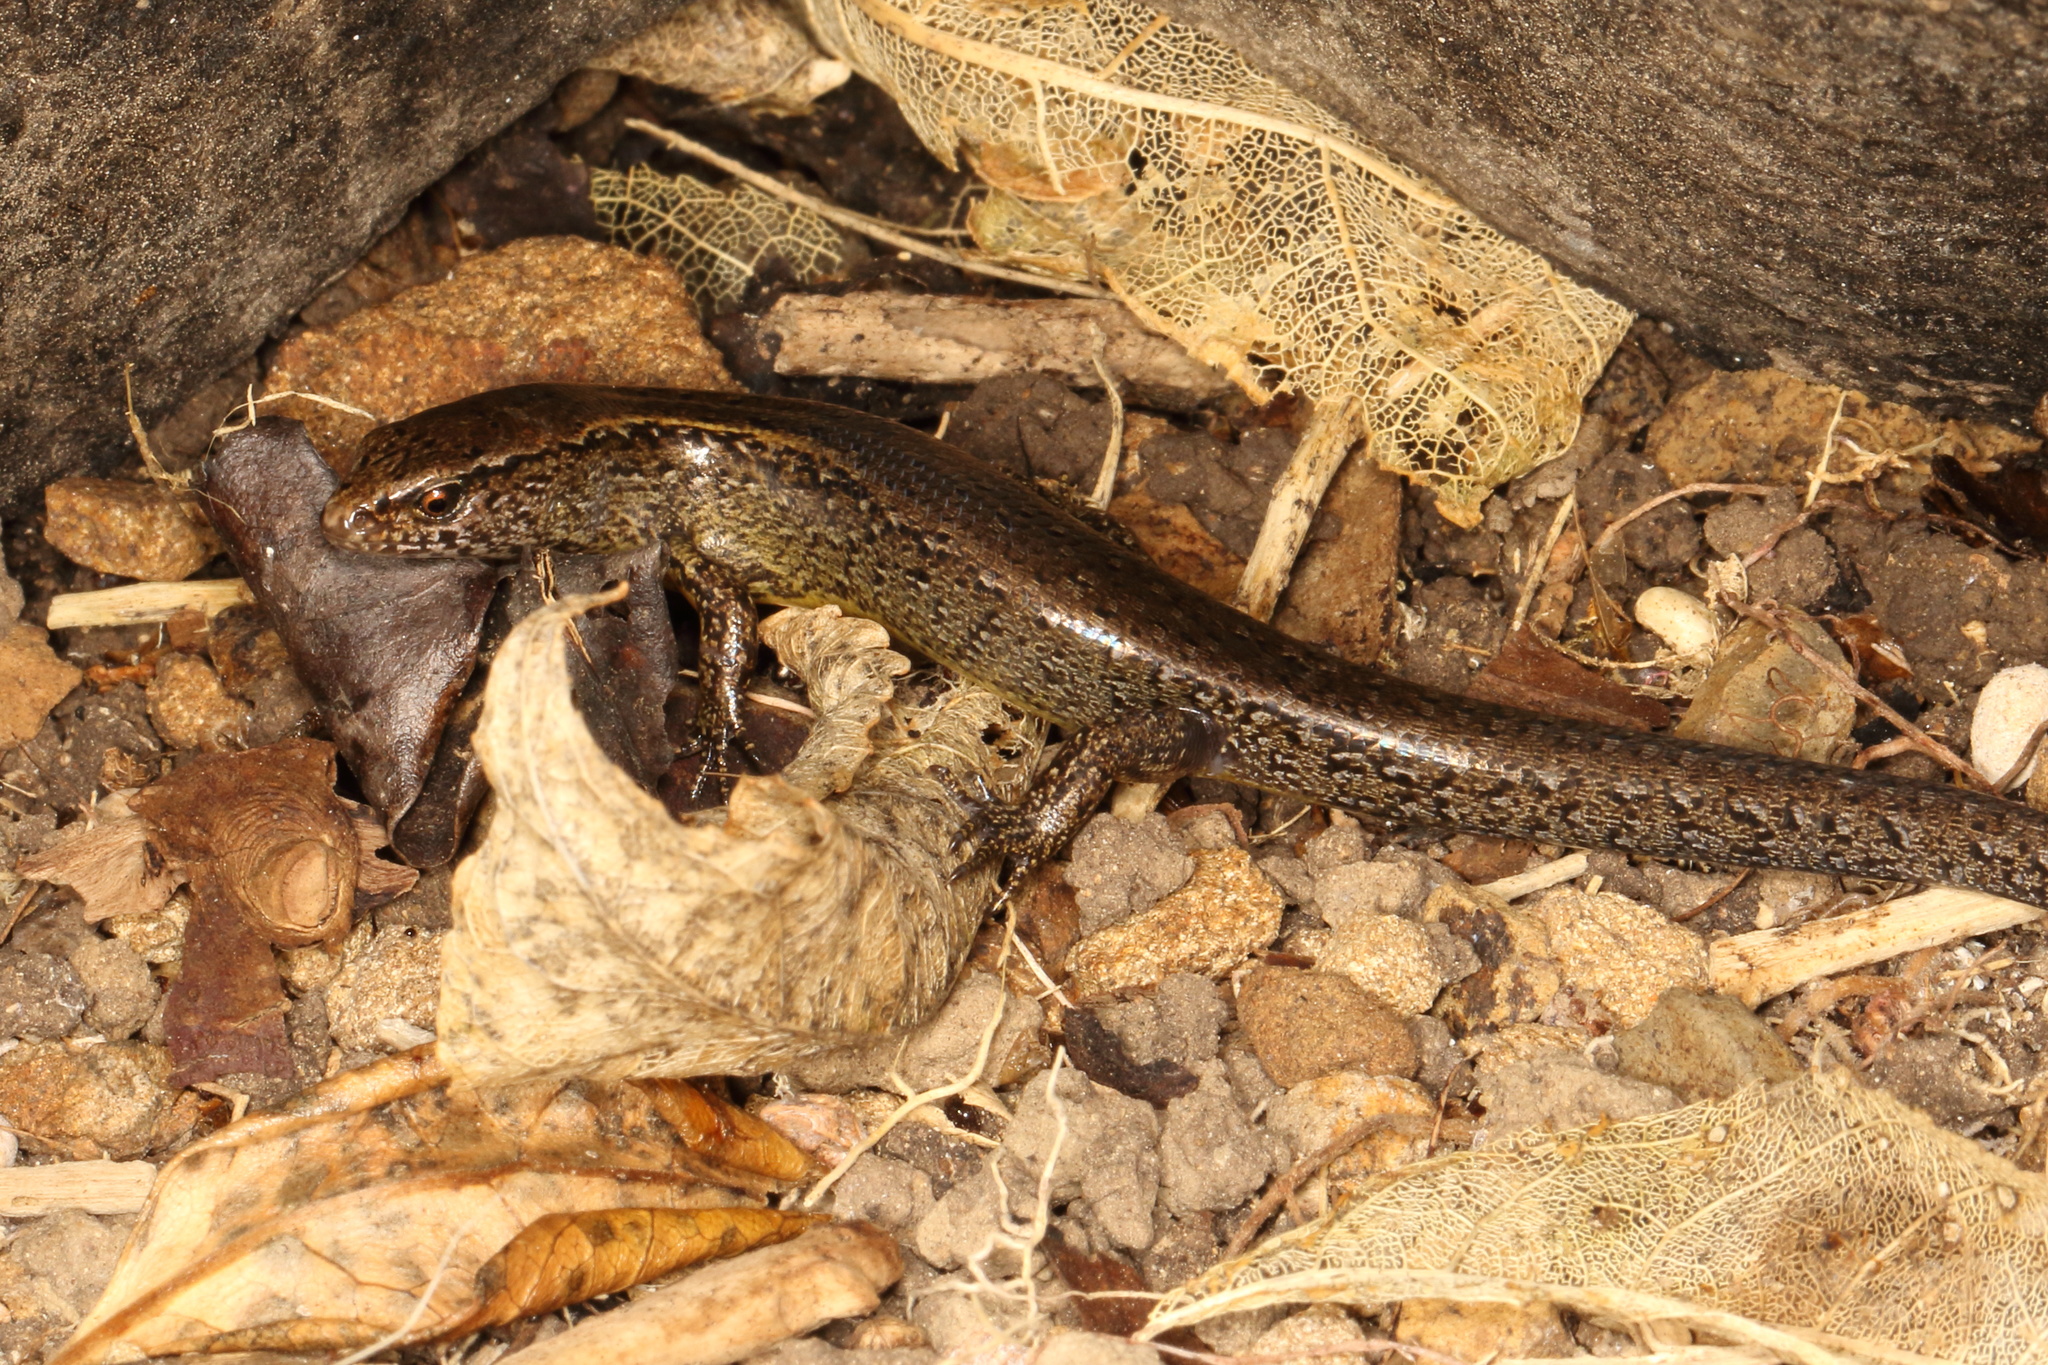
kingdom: Animalia
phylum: Chordata
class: Squamata
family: Scincidae
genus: Oligosoma
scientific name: Oligosoma aeneum
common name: Copper skink
